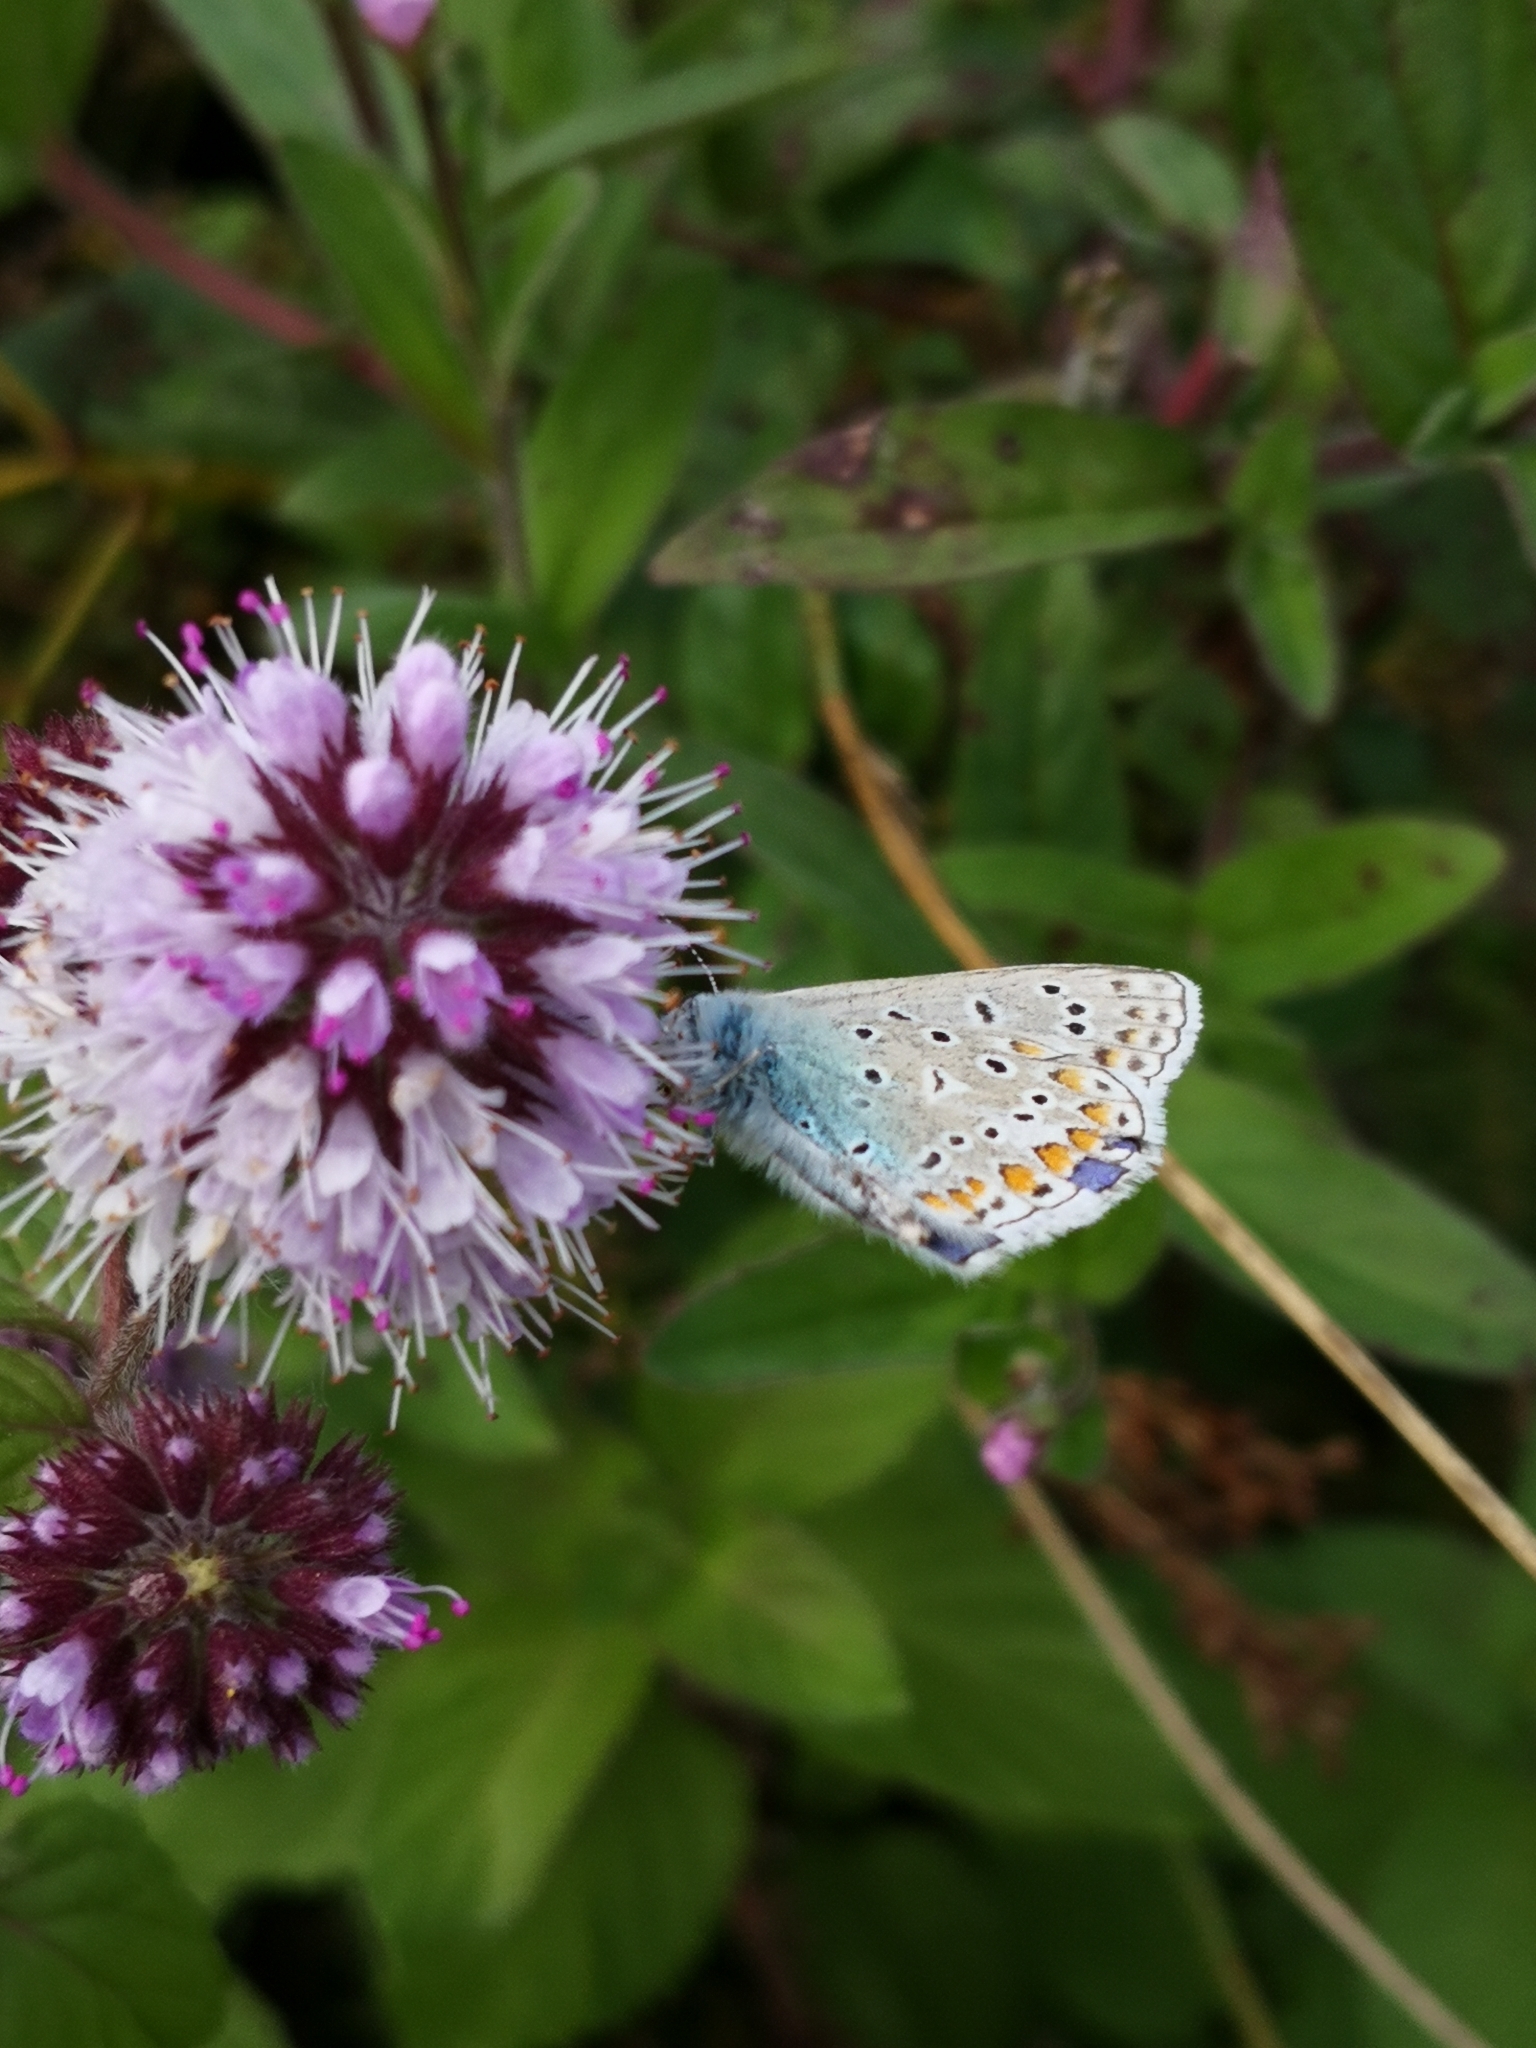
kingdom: Animalia
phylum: Arthropoda
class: Insecta
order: Lepidoptera
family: Lycaenidae
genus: Polyommatus
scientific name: Polyommatus icarus
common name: Common blue
